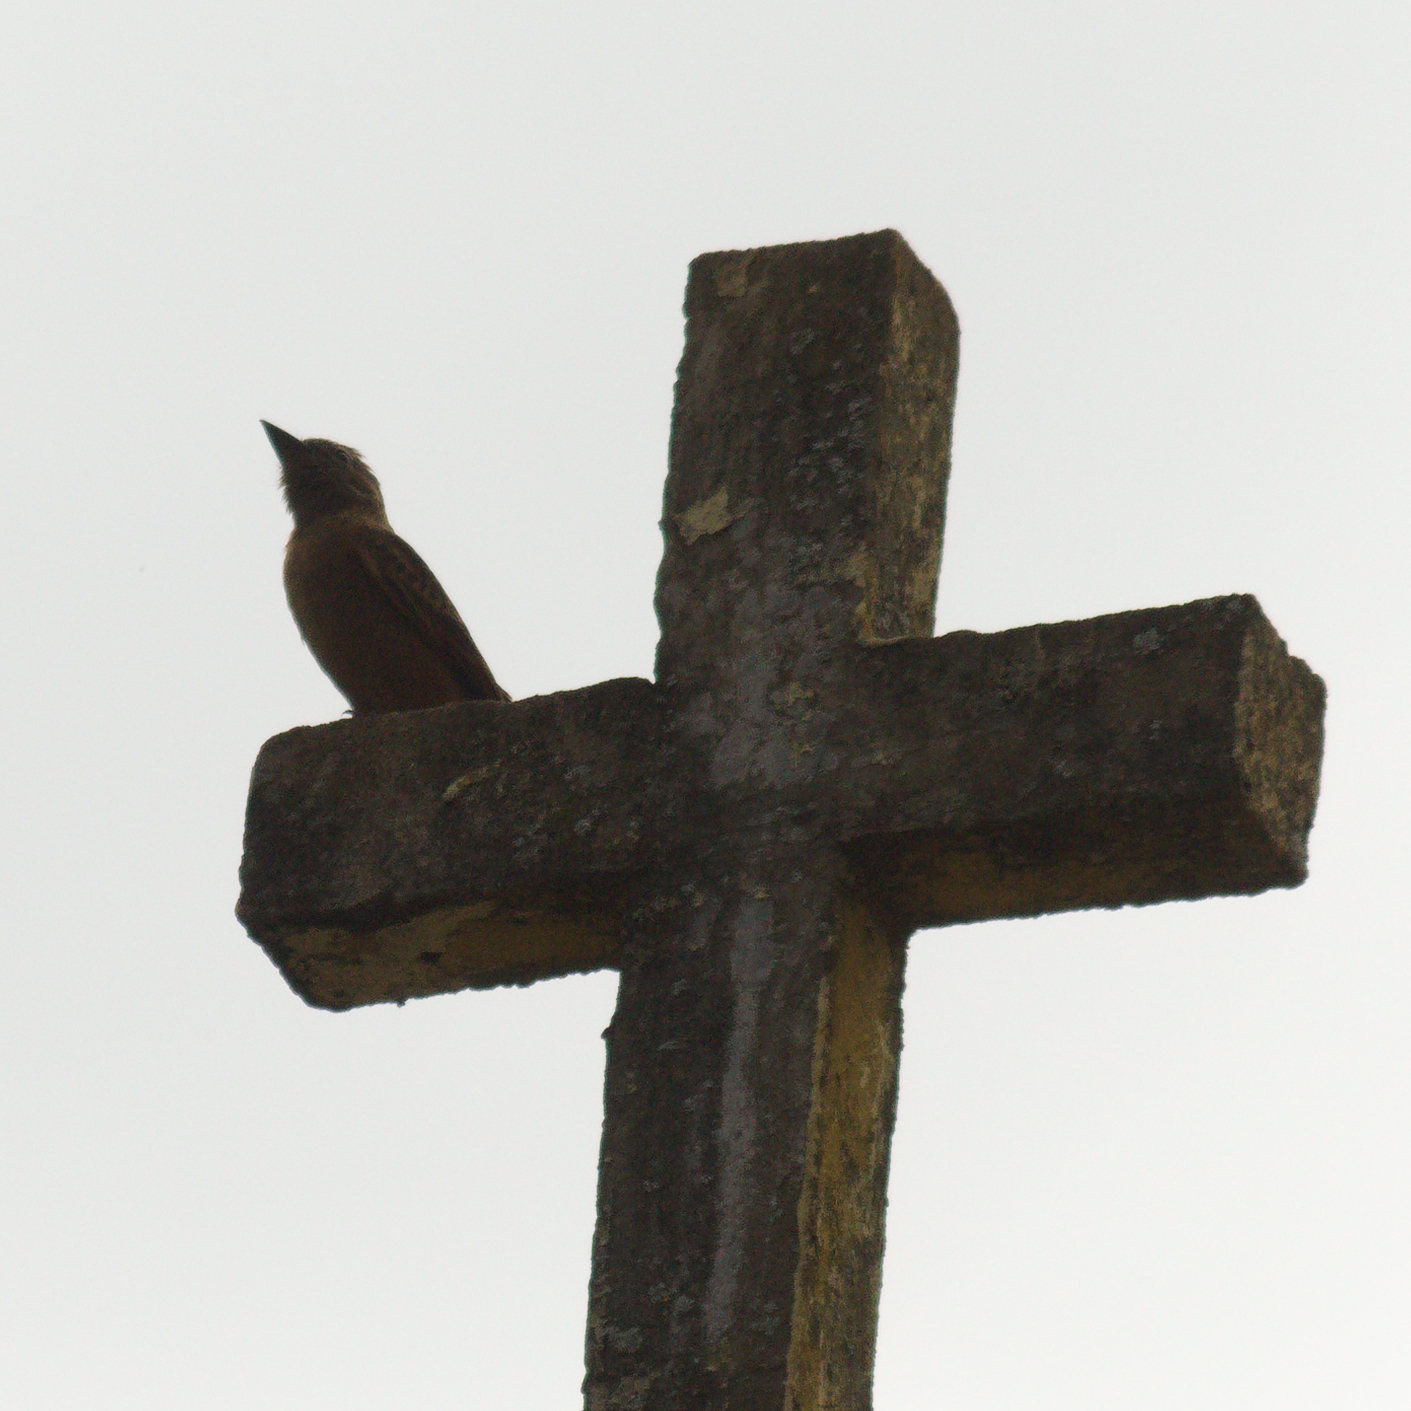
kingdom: Animalia
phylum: Chordata
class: Aves
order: Passeriformes
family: Tyrannidae
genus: Hirundinea
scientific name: Hirundinea ferruginea
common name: Cliff flycatcher
